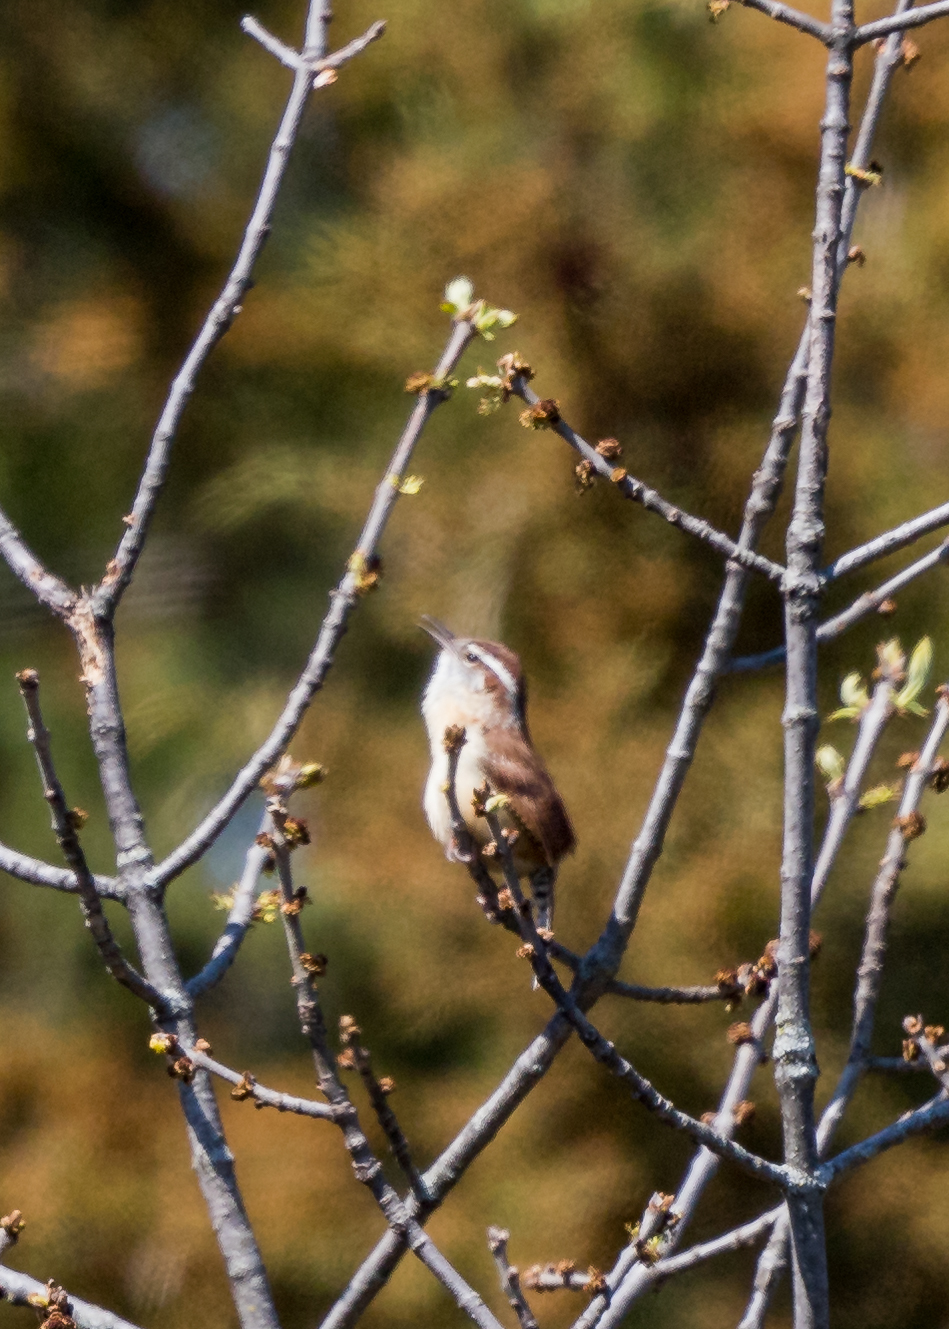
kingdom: Animalia
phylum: Chordata
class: Aves
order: Passeriformes
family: Troglodytidae
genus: Thryothorus
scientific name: Thryothorus ludovicianus
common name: Carolina wren
